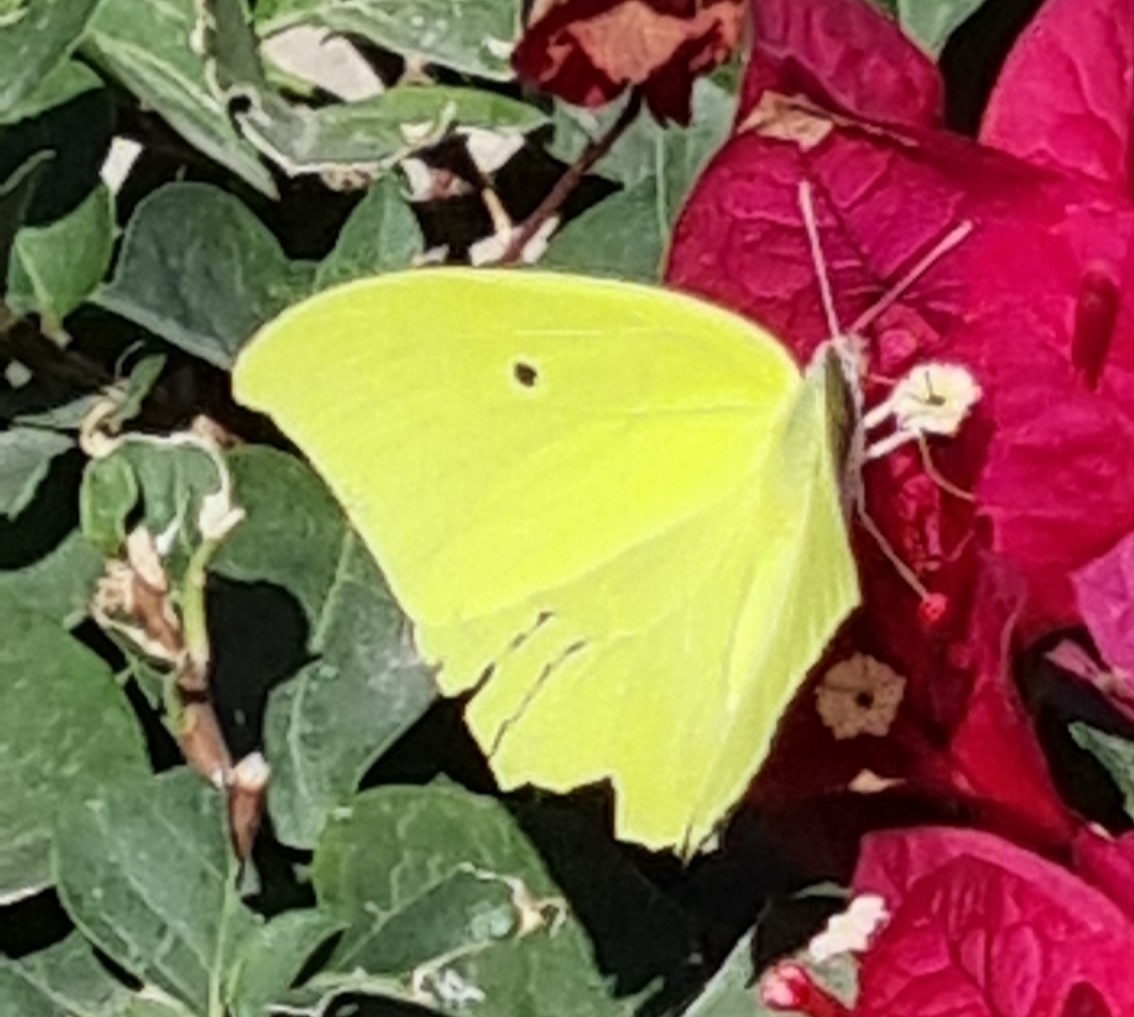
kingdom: Animalia
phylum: Arthropoda
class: Insecta
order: Lepidoptera
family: Pieridae
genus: Anteos
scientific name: Anteos maerula
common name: Angled sulphur
